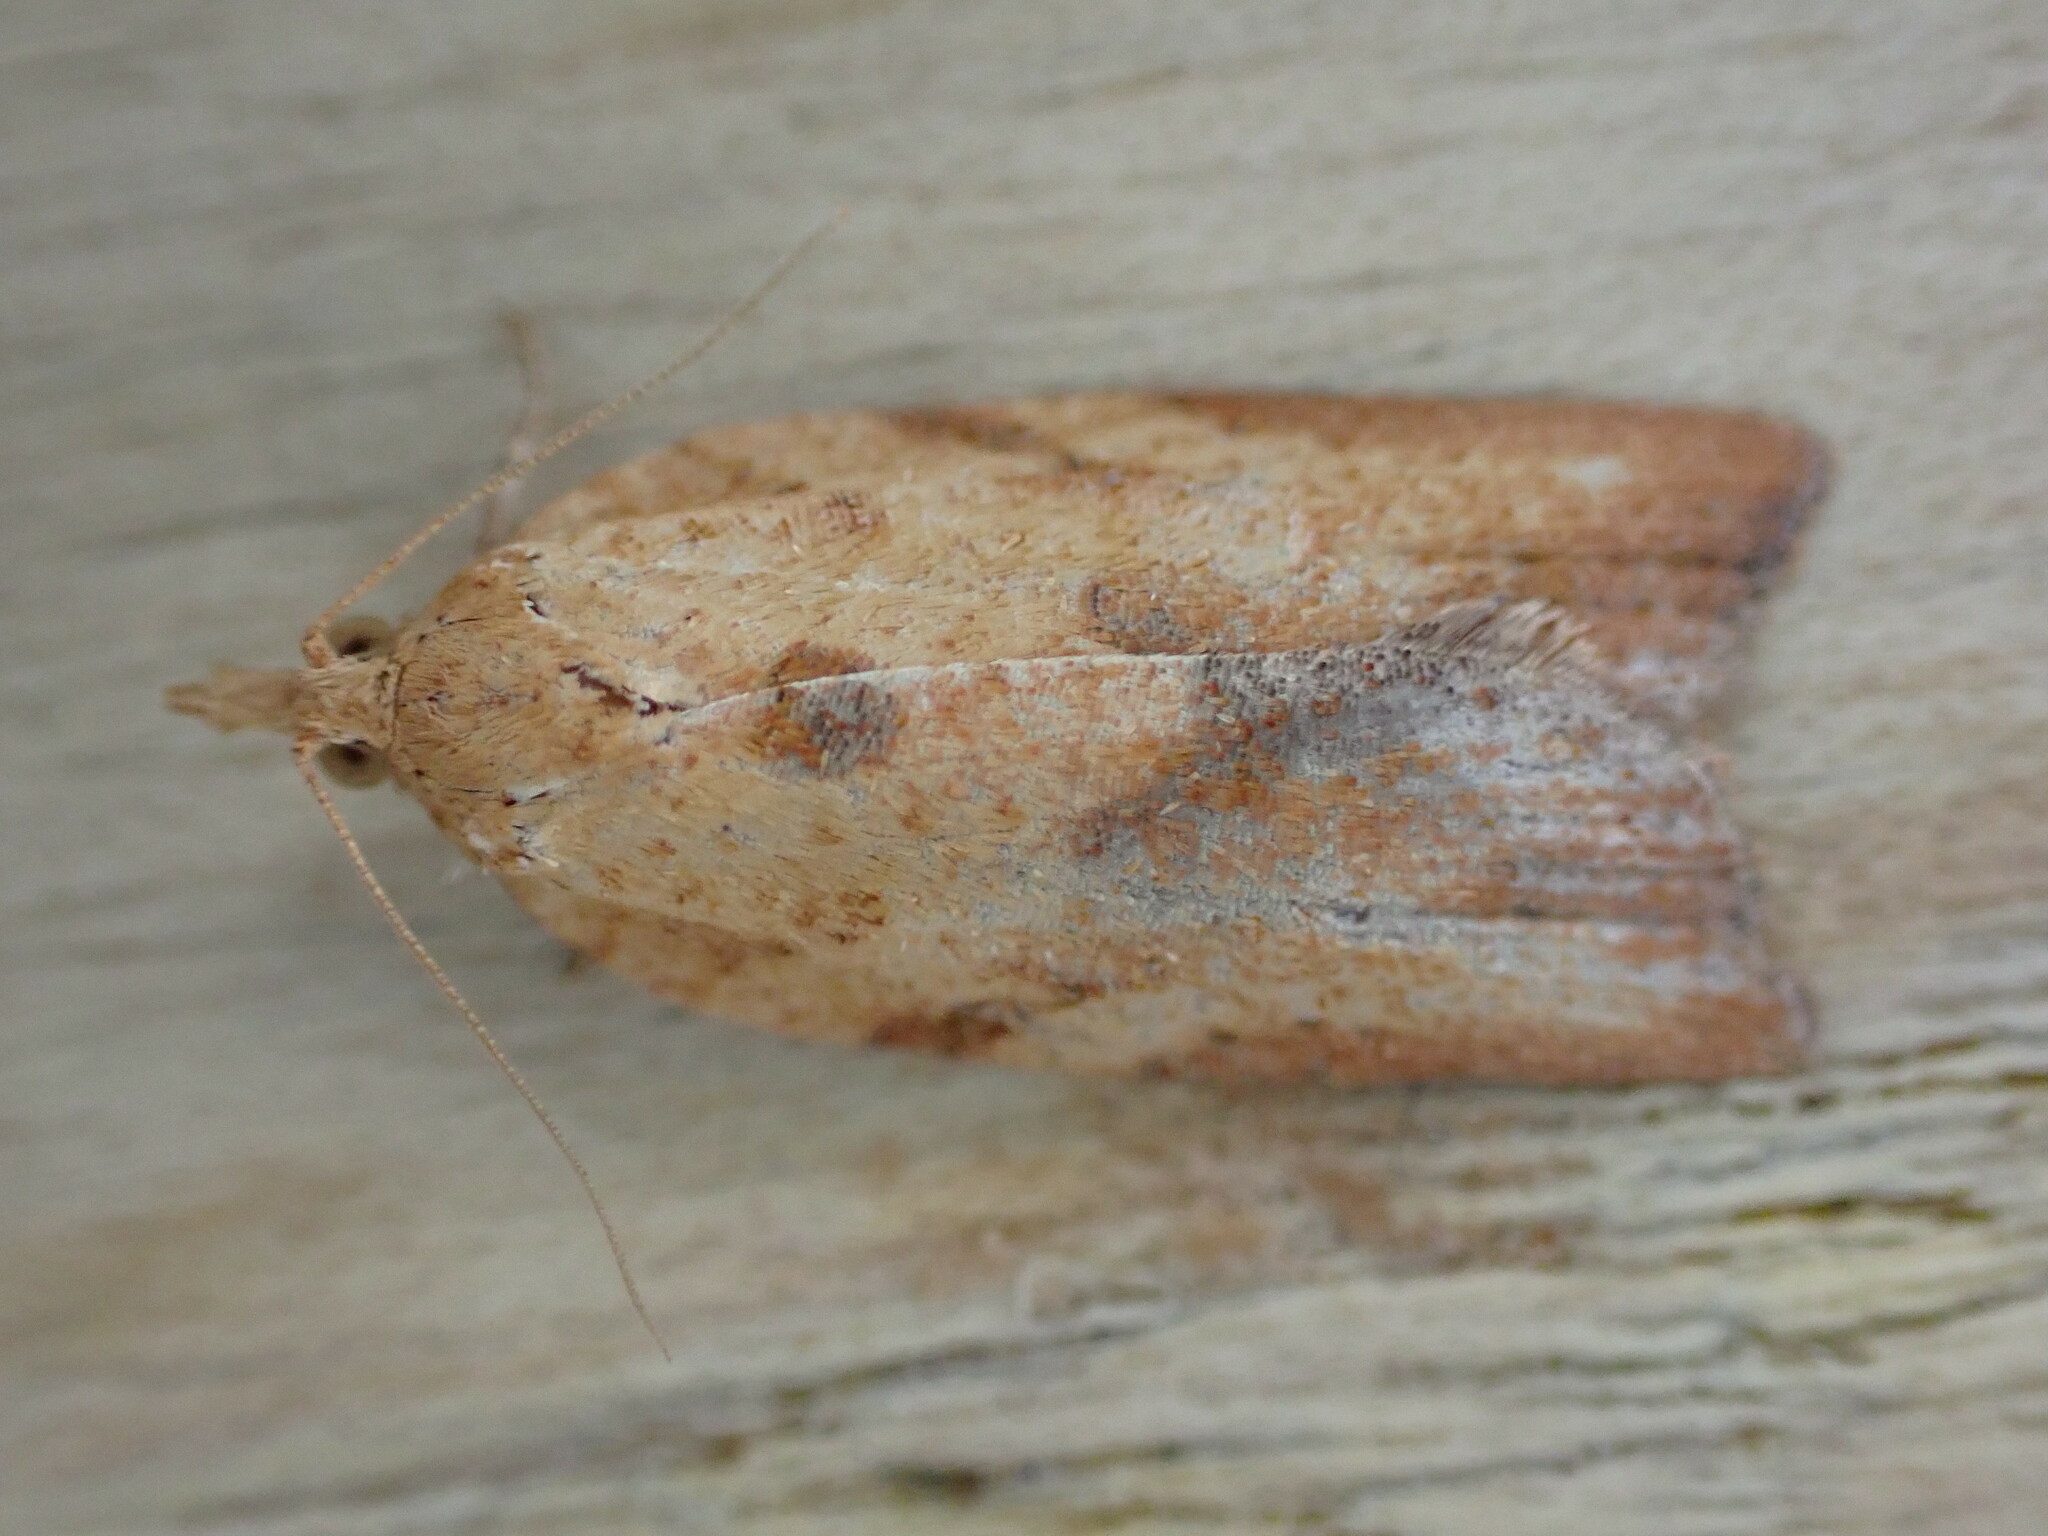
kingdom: Animalia
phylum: Arthropoda
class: Insecta
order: Lepidoptera
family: Tortricidae
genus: Epiphyas
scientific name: Epiphyas postvittana
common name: Light brown apple moth
